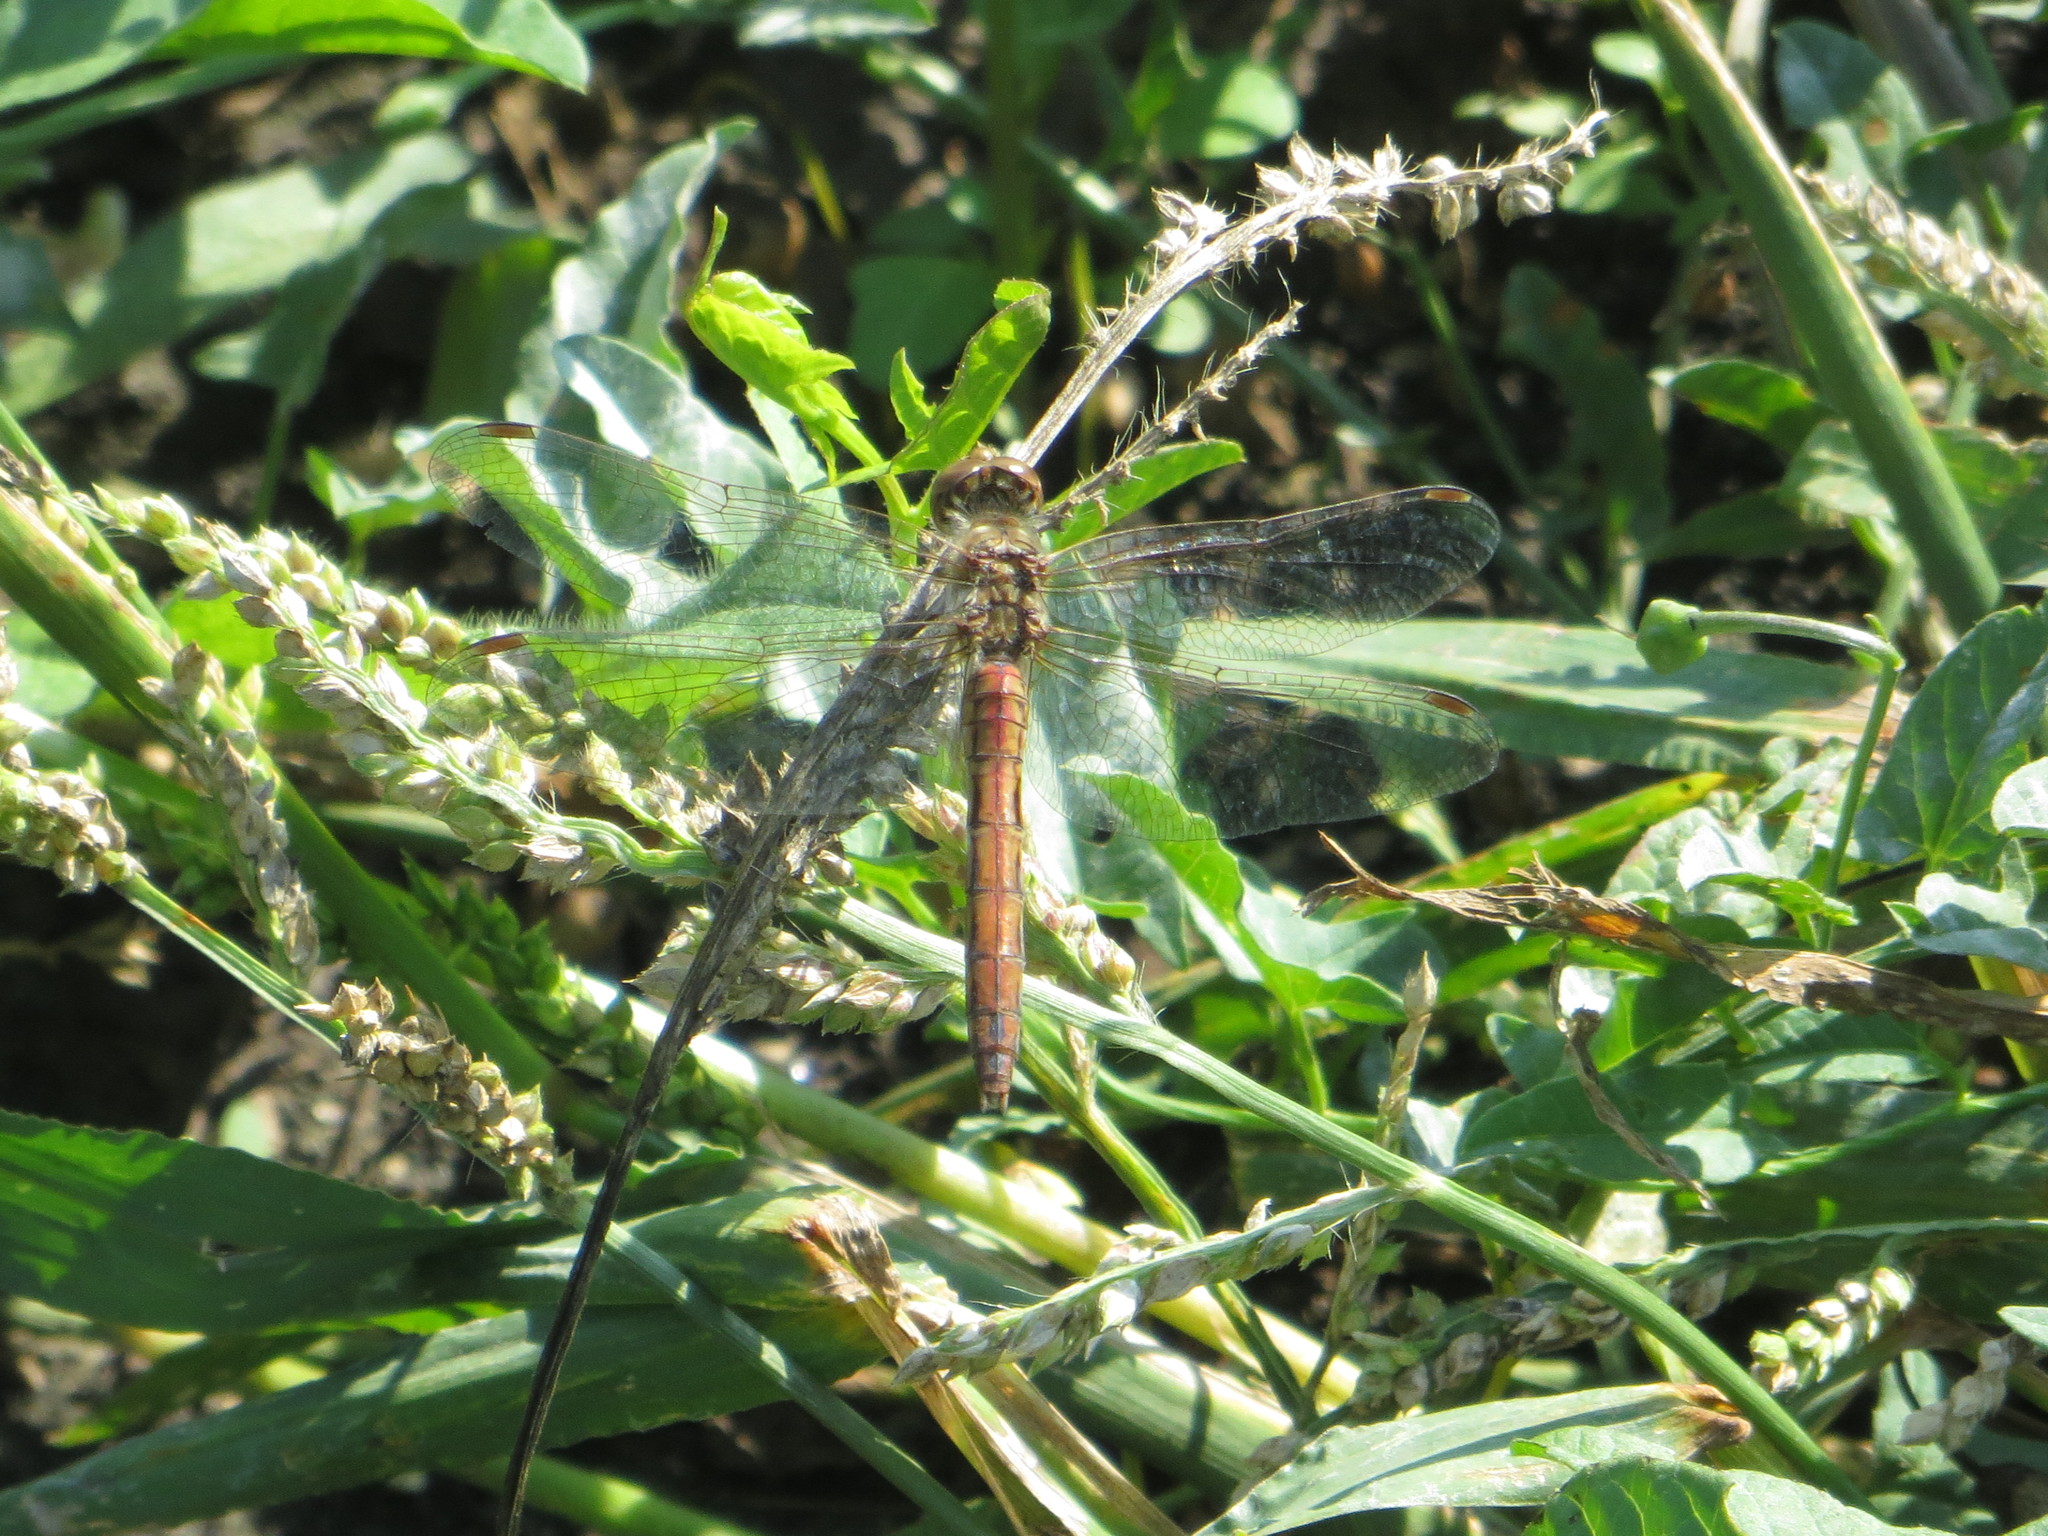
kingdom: Animalia
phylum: Arthropoda
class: Insecta
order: Odonata
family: Libellulidae
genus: Sympetrum
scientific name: Sympetrum vulgatum
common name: Vagrant darter
